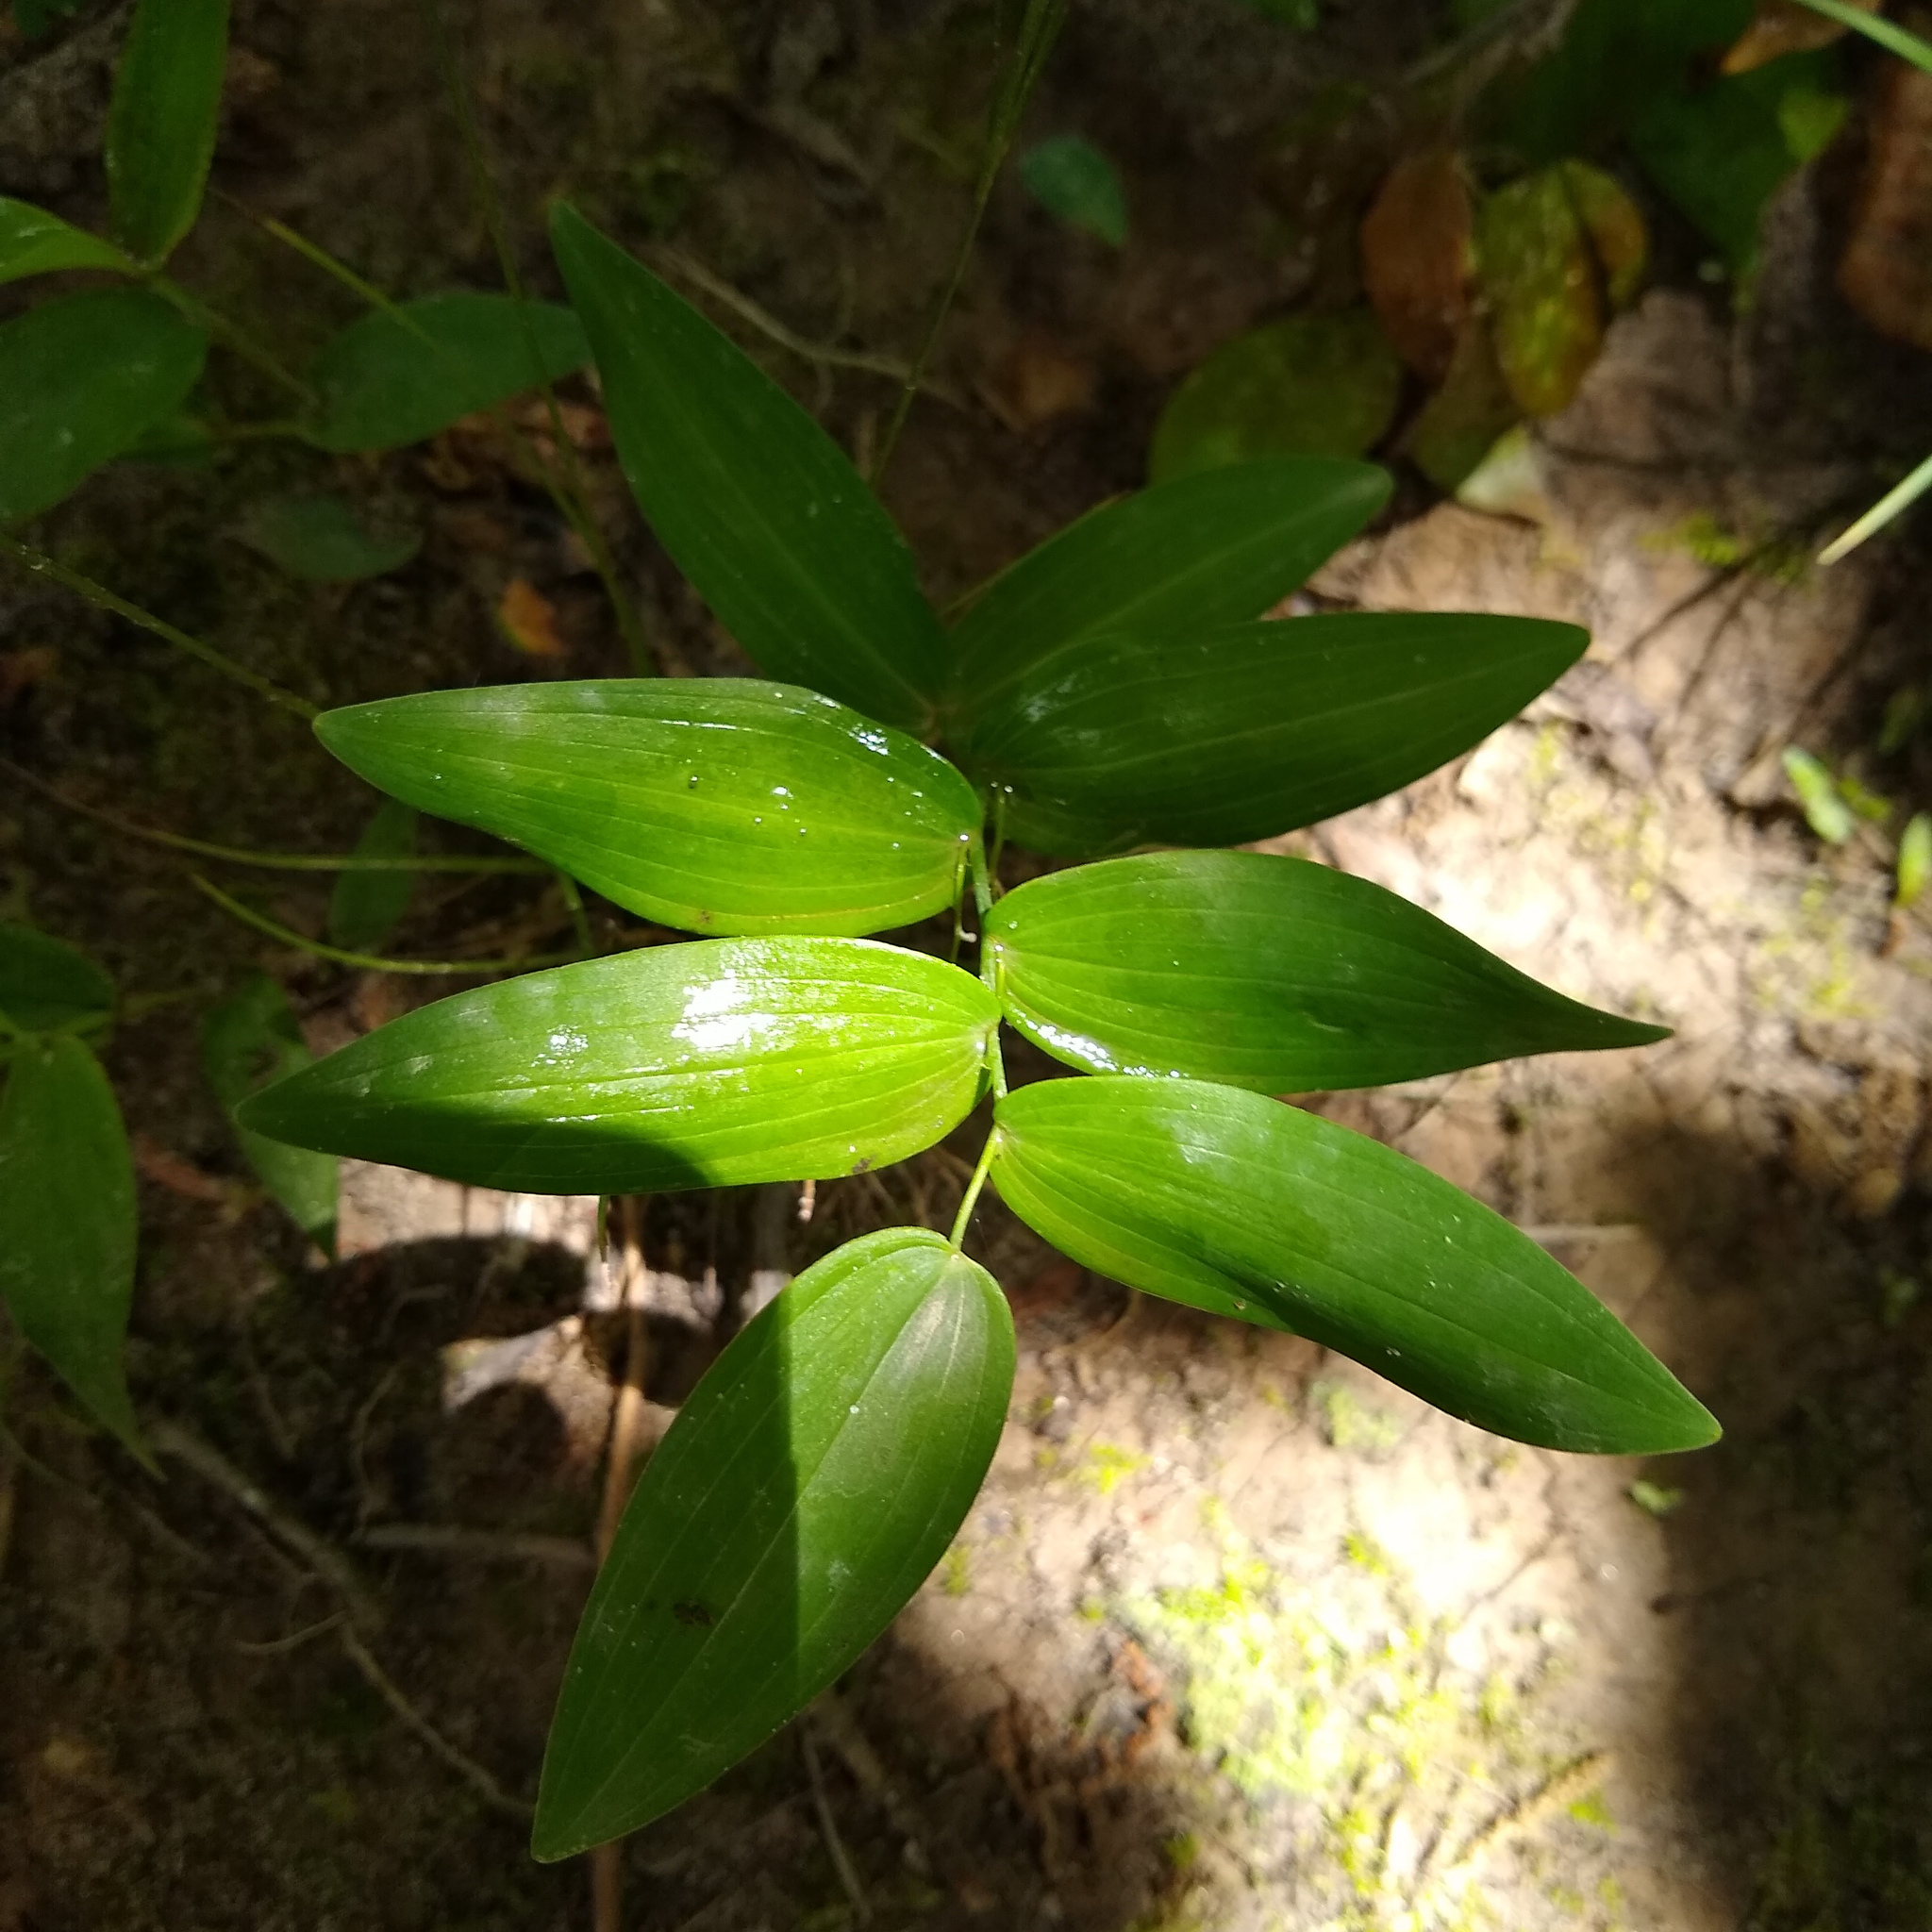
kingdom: Plantae
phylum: Tracheophyta
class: Liliopsida
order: Asparagales
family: Asparagaceae
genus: Polygonatum
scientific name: Polygonatum biflorum
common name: American solomon's-seal
